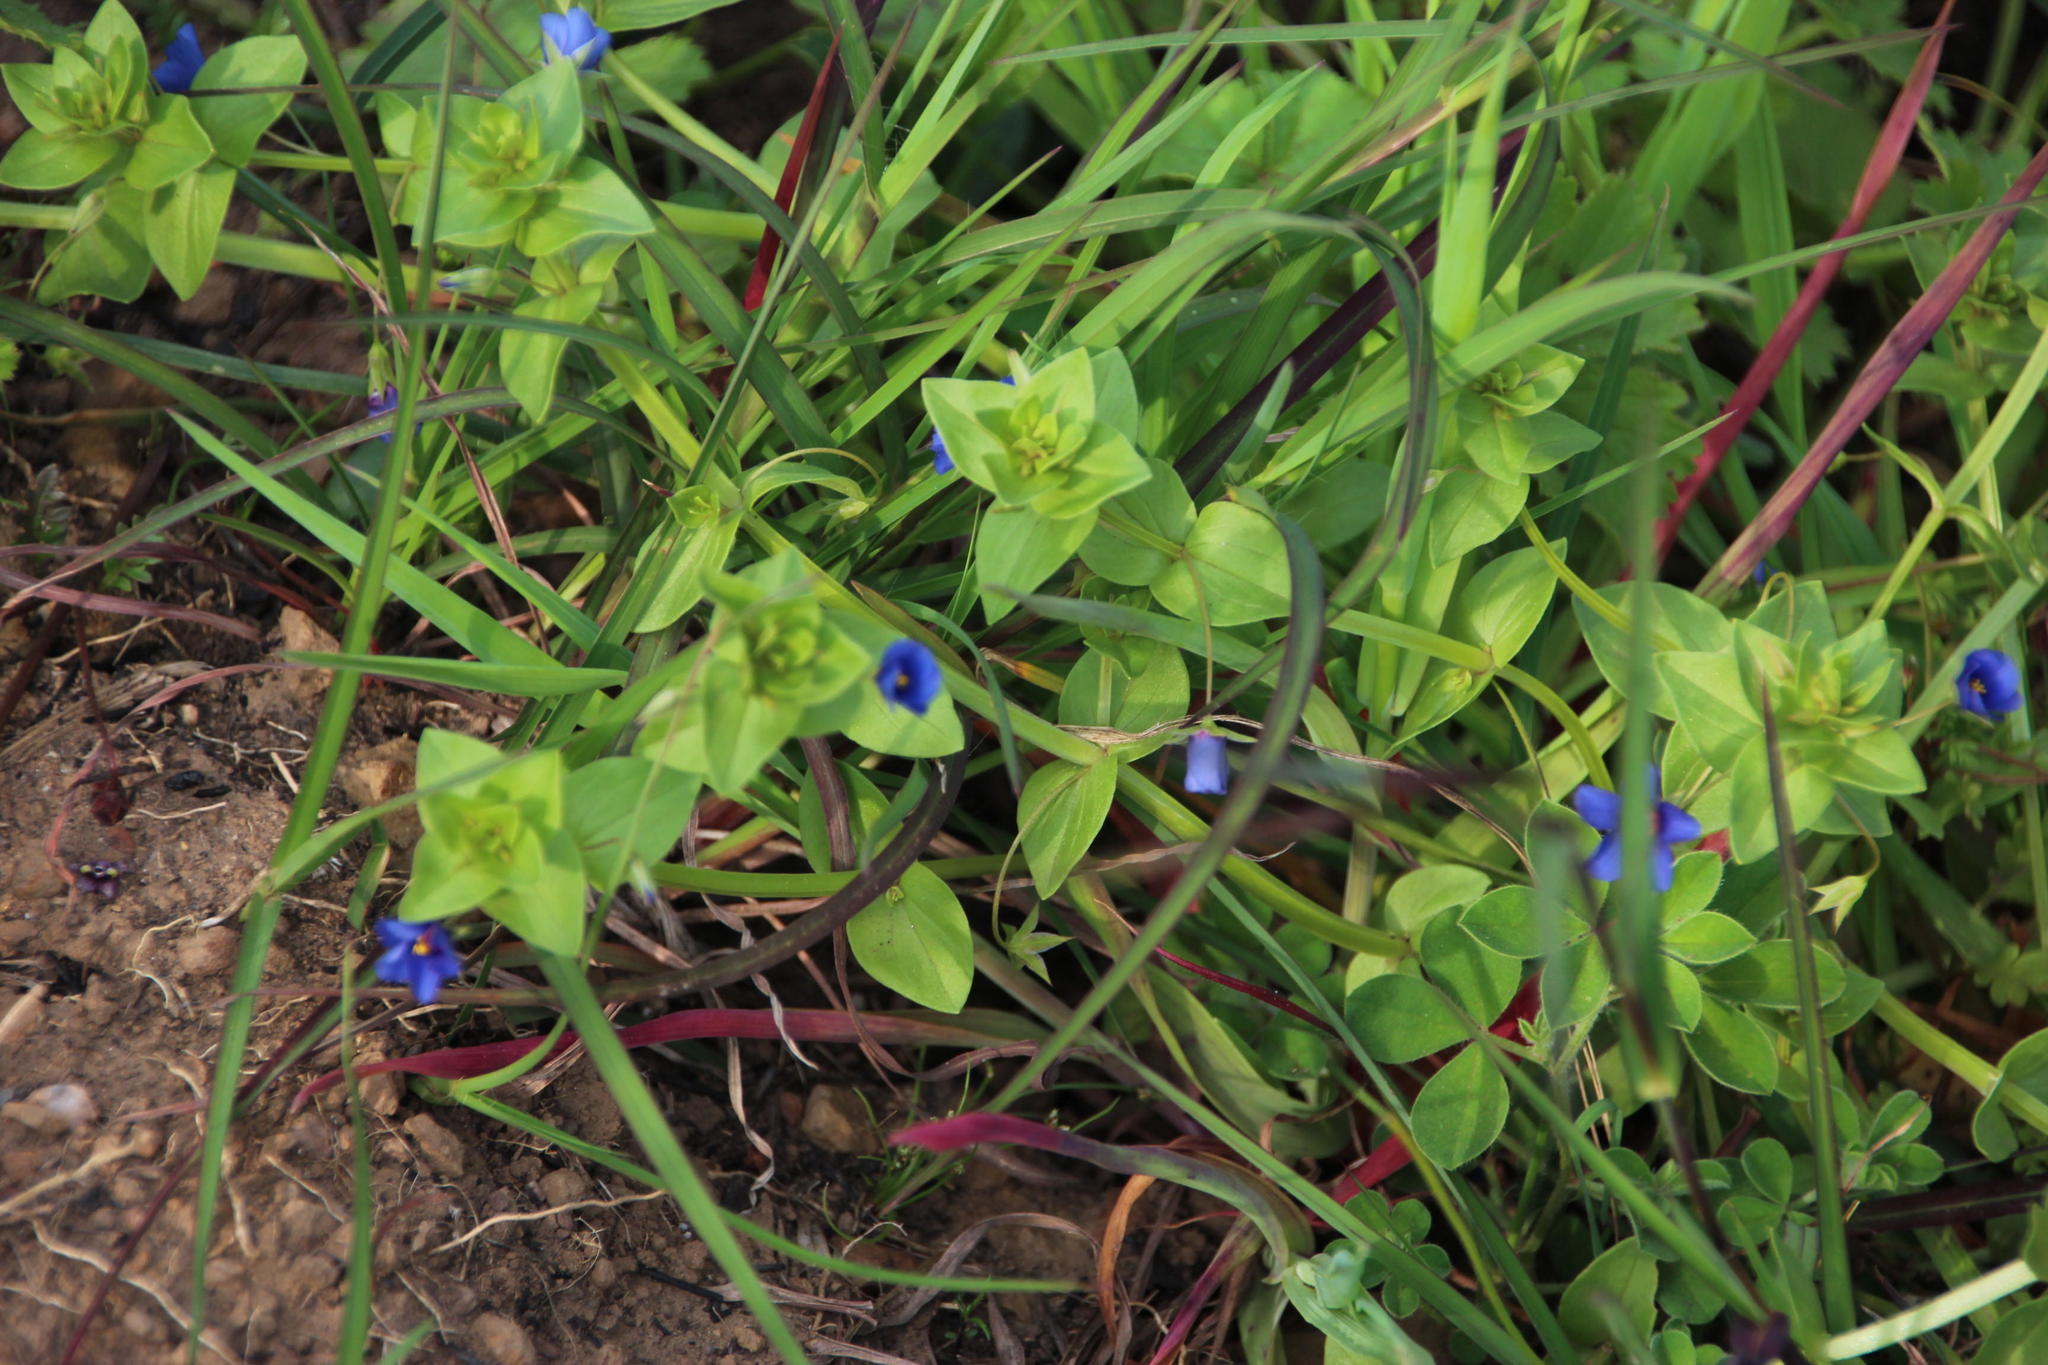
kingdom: Plantae
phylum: Tracheophyta
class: Magnoliopsida
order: Ericales
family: Primulaceae
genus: Lysimachia
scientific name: Lysimachia loeflingii
